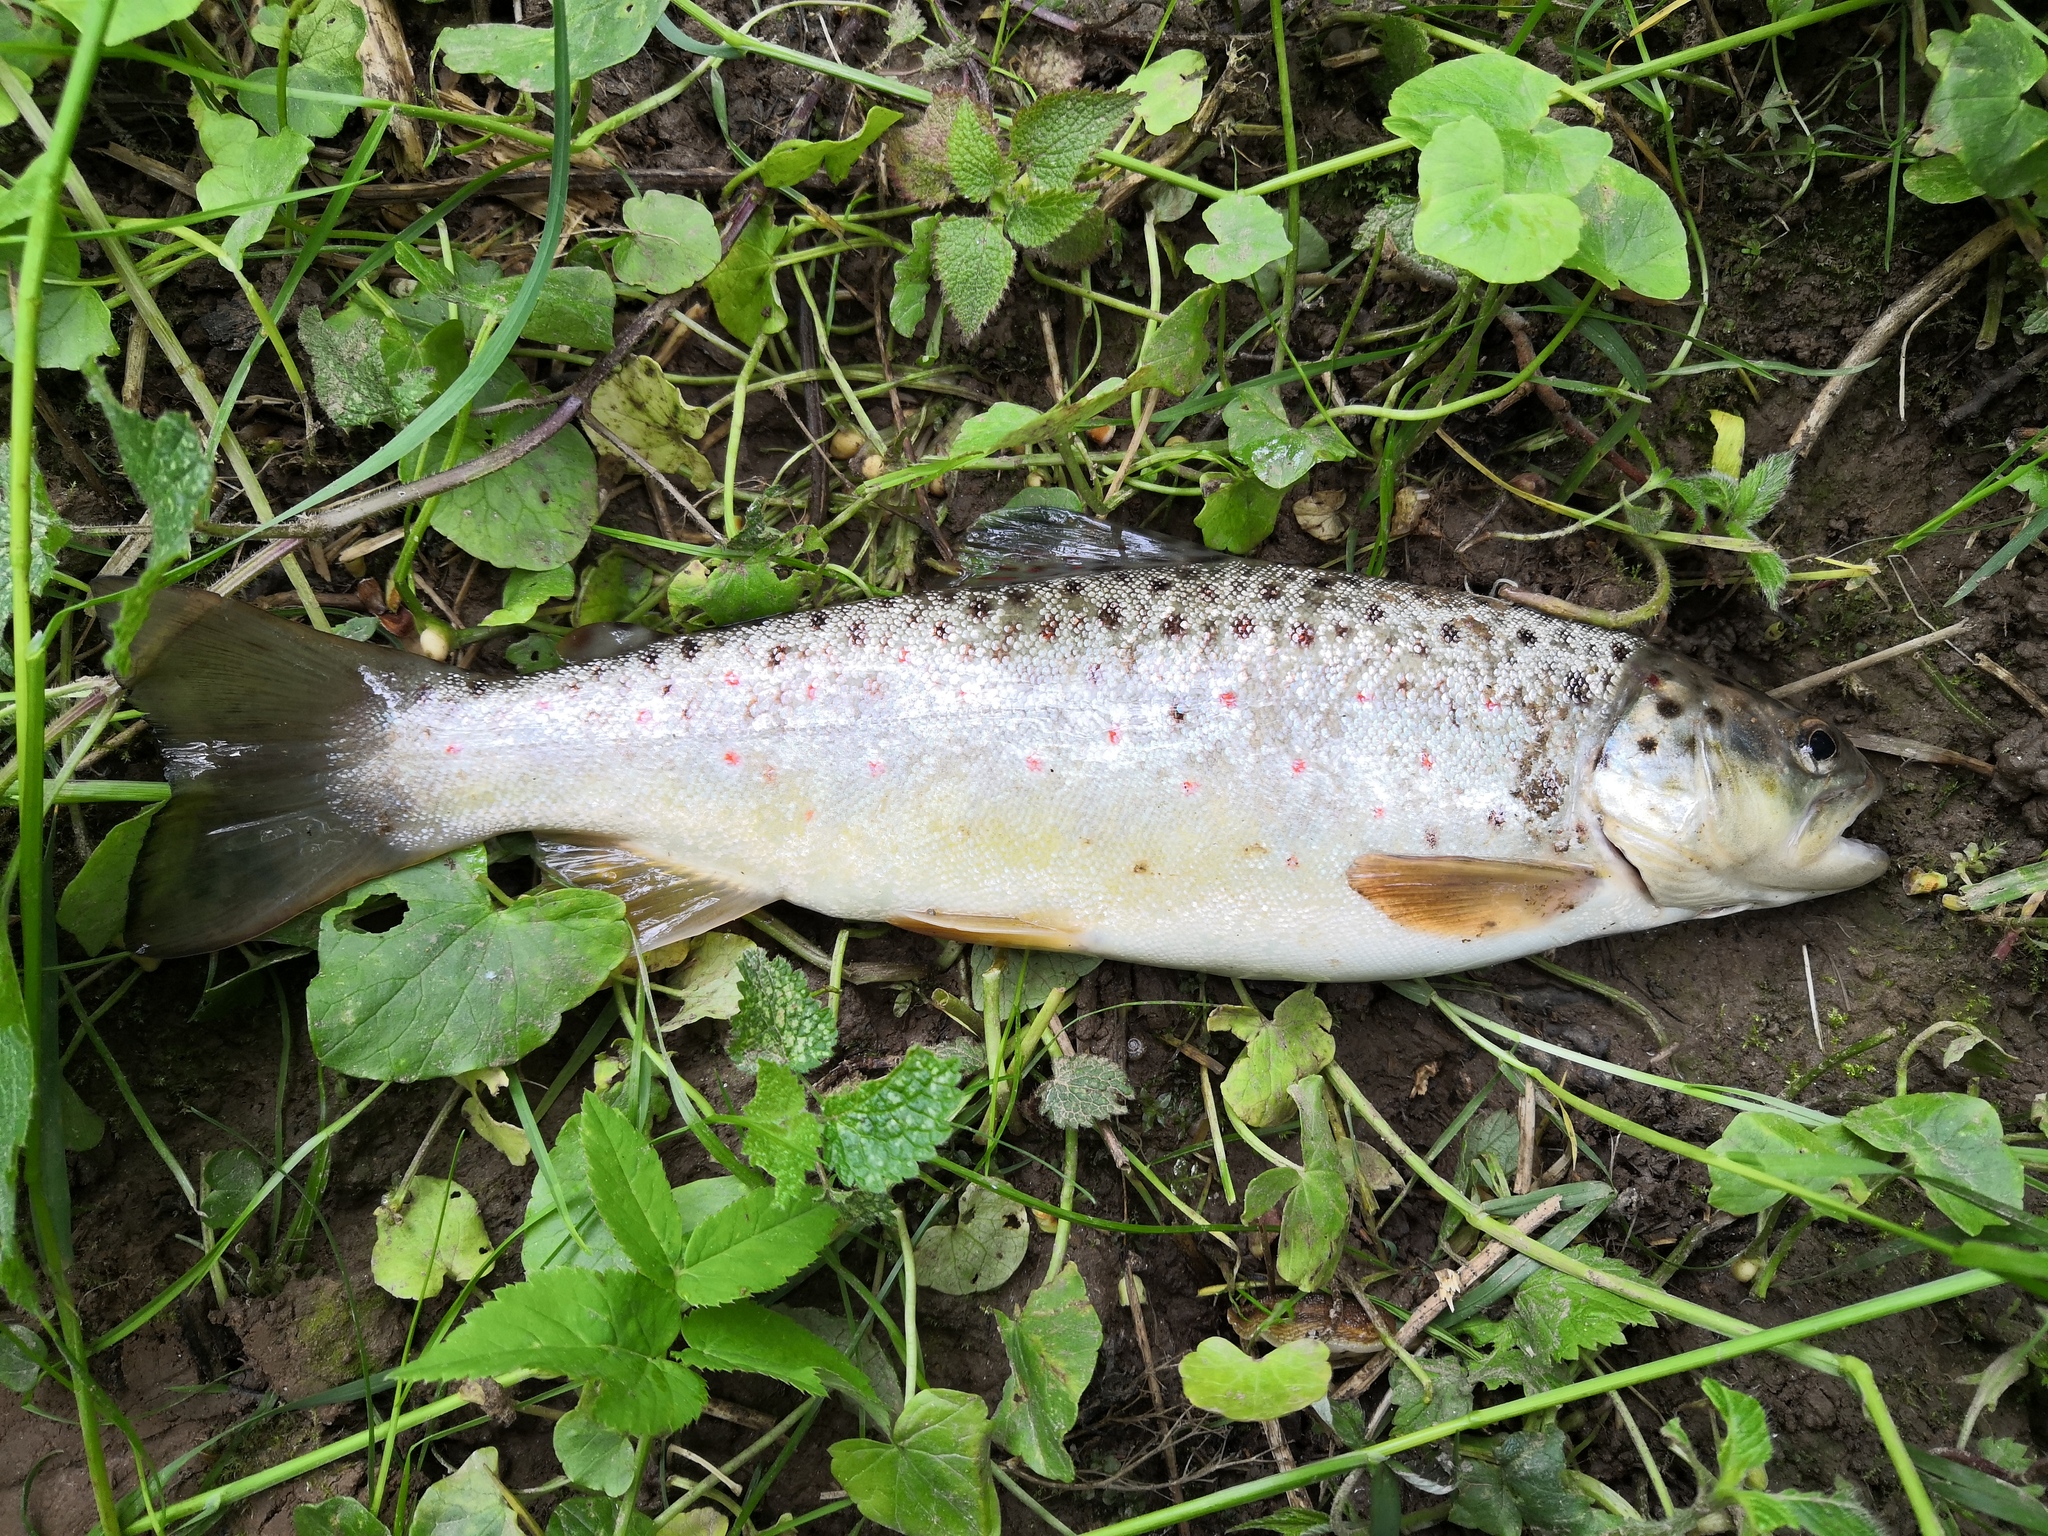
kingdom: Animalia
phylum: Chordata
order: Salmoniformes
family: Salmonidae
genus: Salmo
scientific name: Salmo trutta
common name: Brown trout
